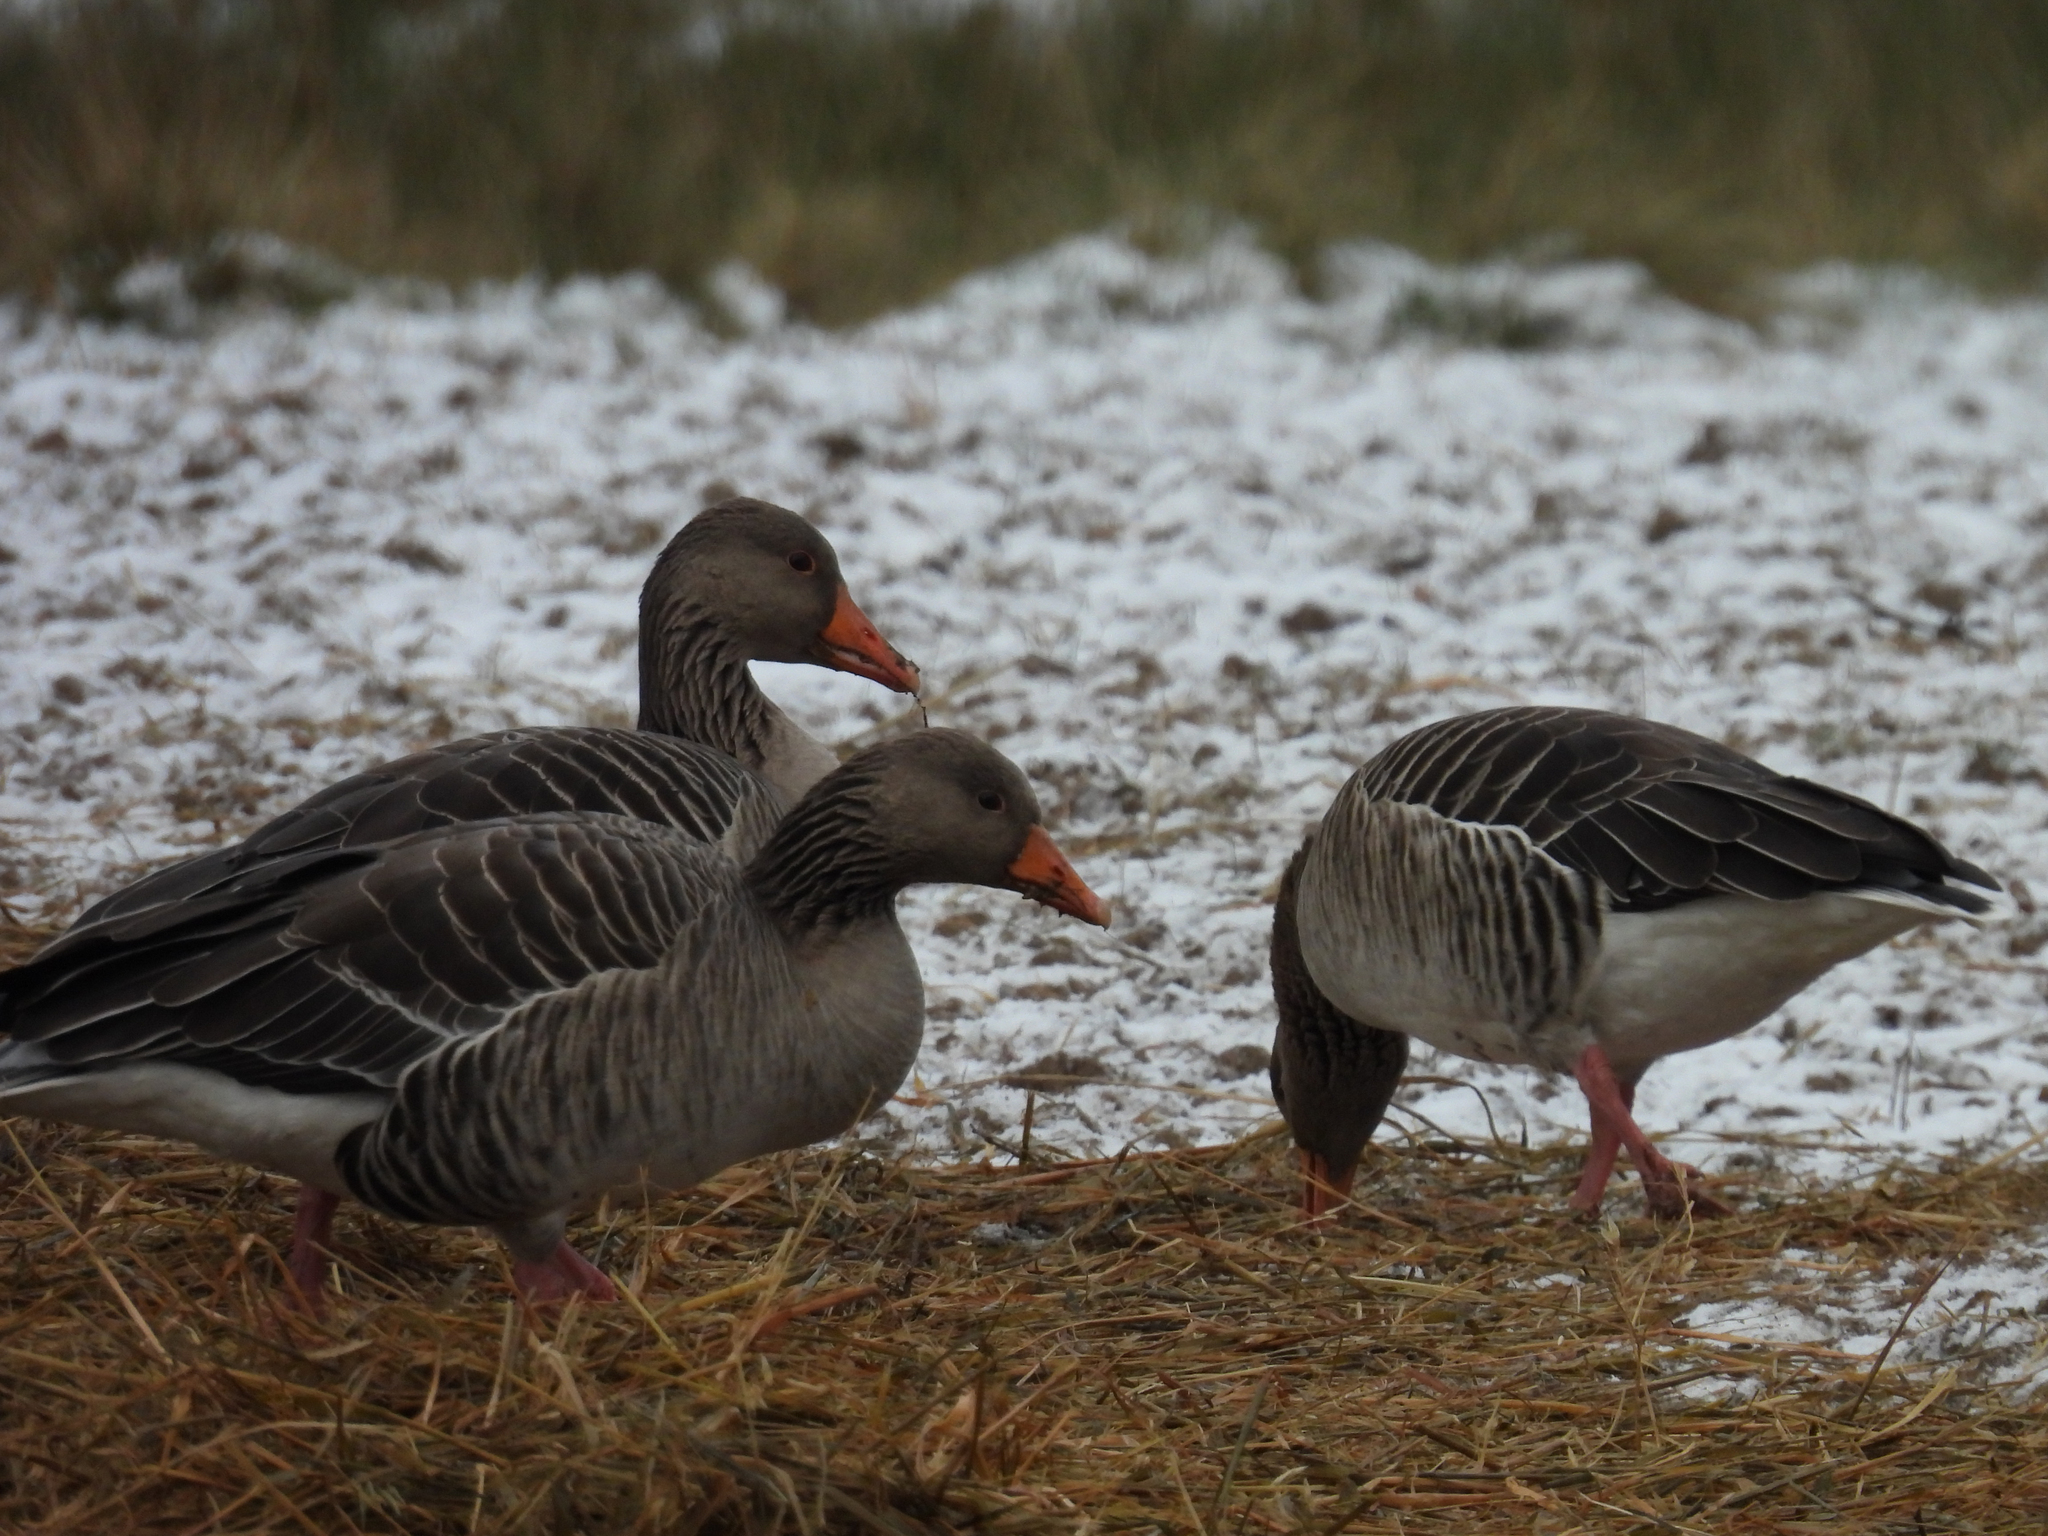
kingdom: Animalia
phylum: Chordata
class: Aves
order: Anseriformes
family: Anatidae
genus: Anser
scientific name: Anser anser
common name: Greylag goose
